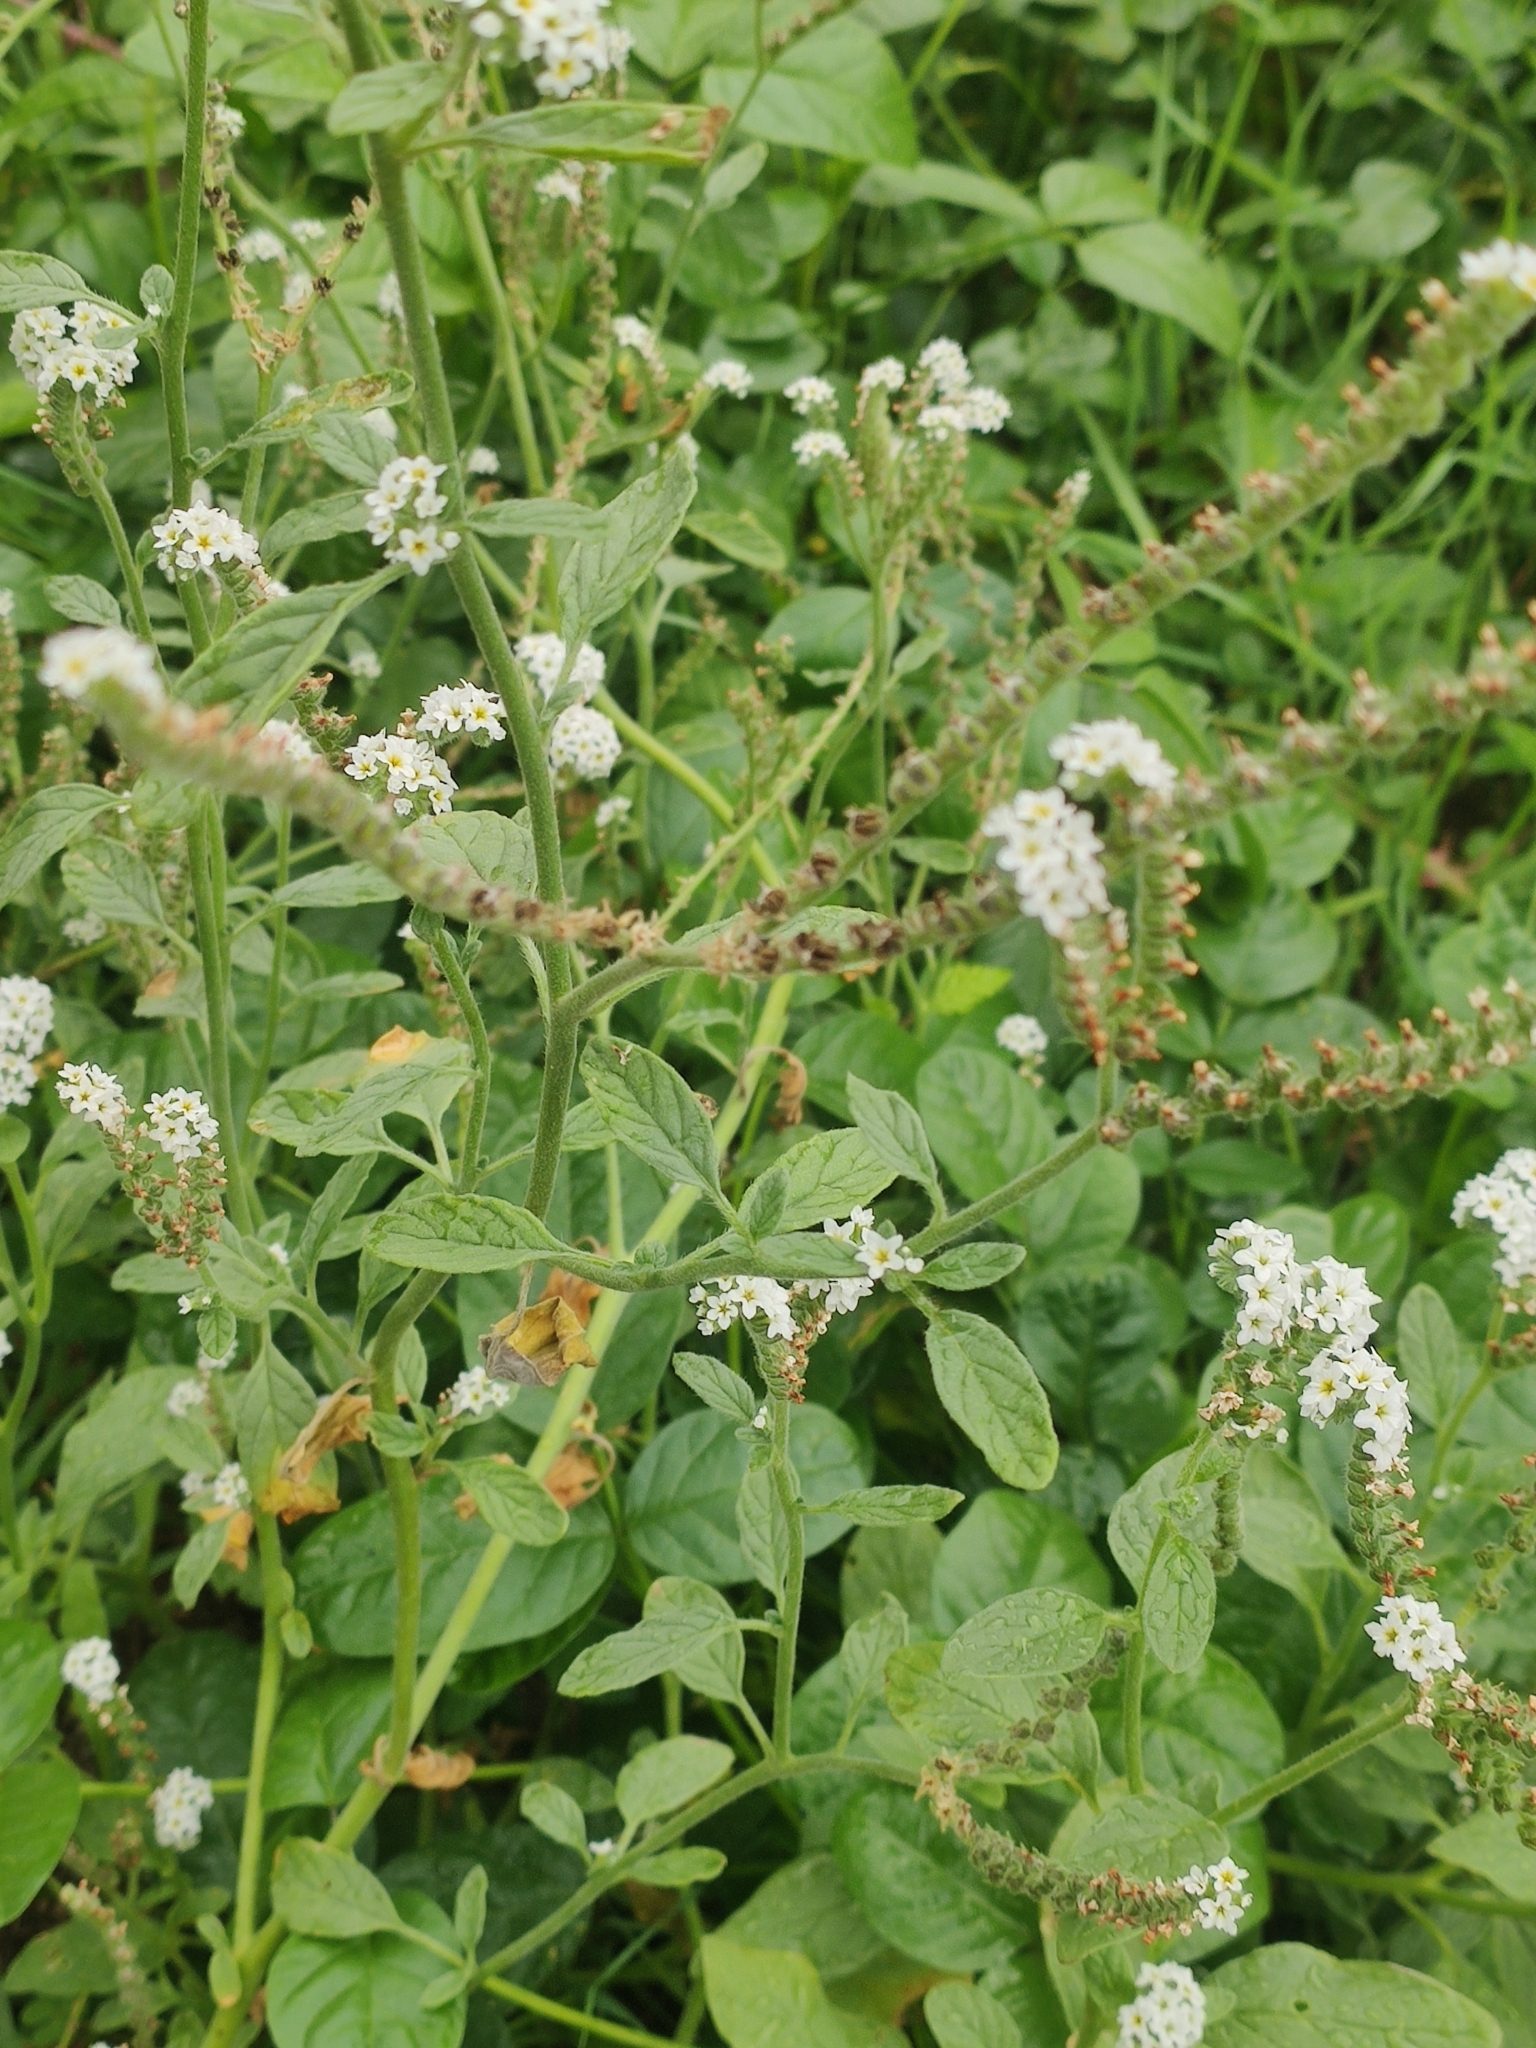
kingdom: Plantae
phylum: Tracheophyta
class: Magnoliopsida
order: Boraginales
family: Heliotropiaceae
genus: Heliotropium
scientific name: Heliotropium europaeum
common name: European heliotrope
